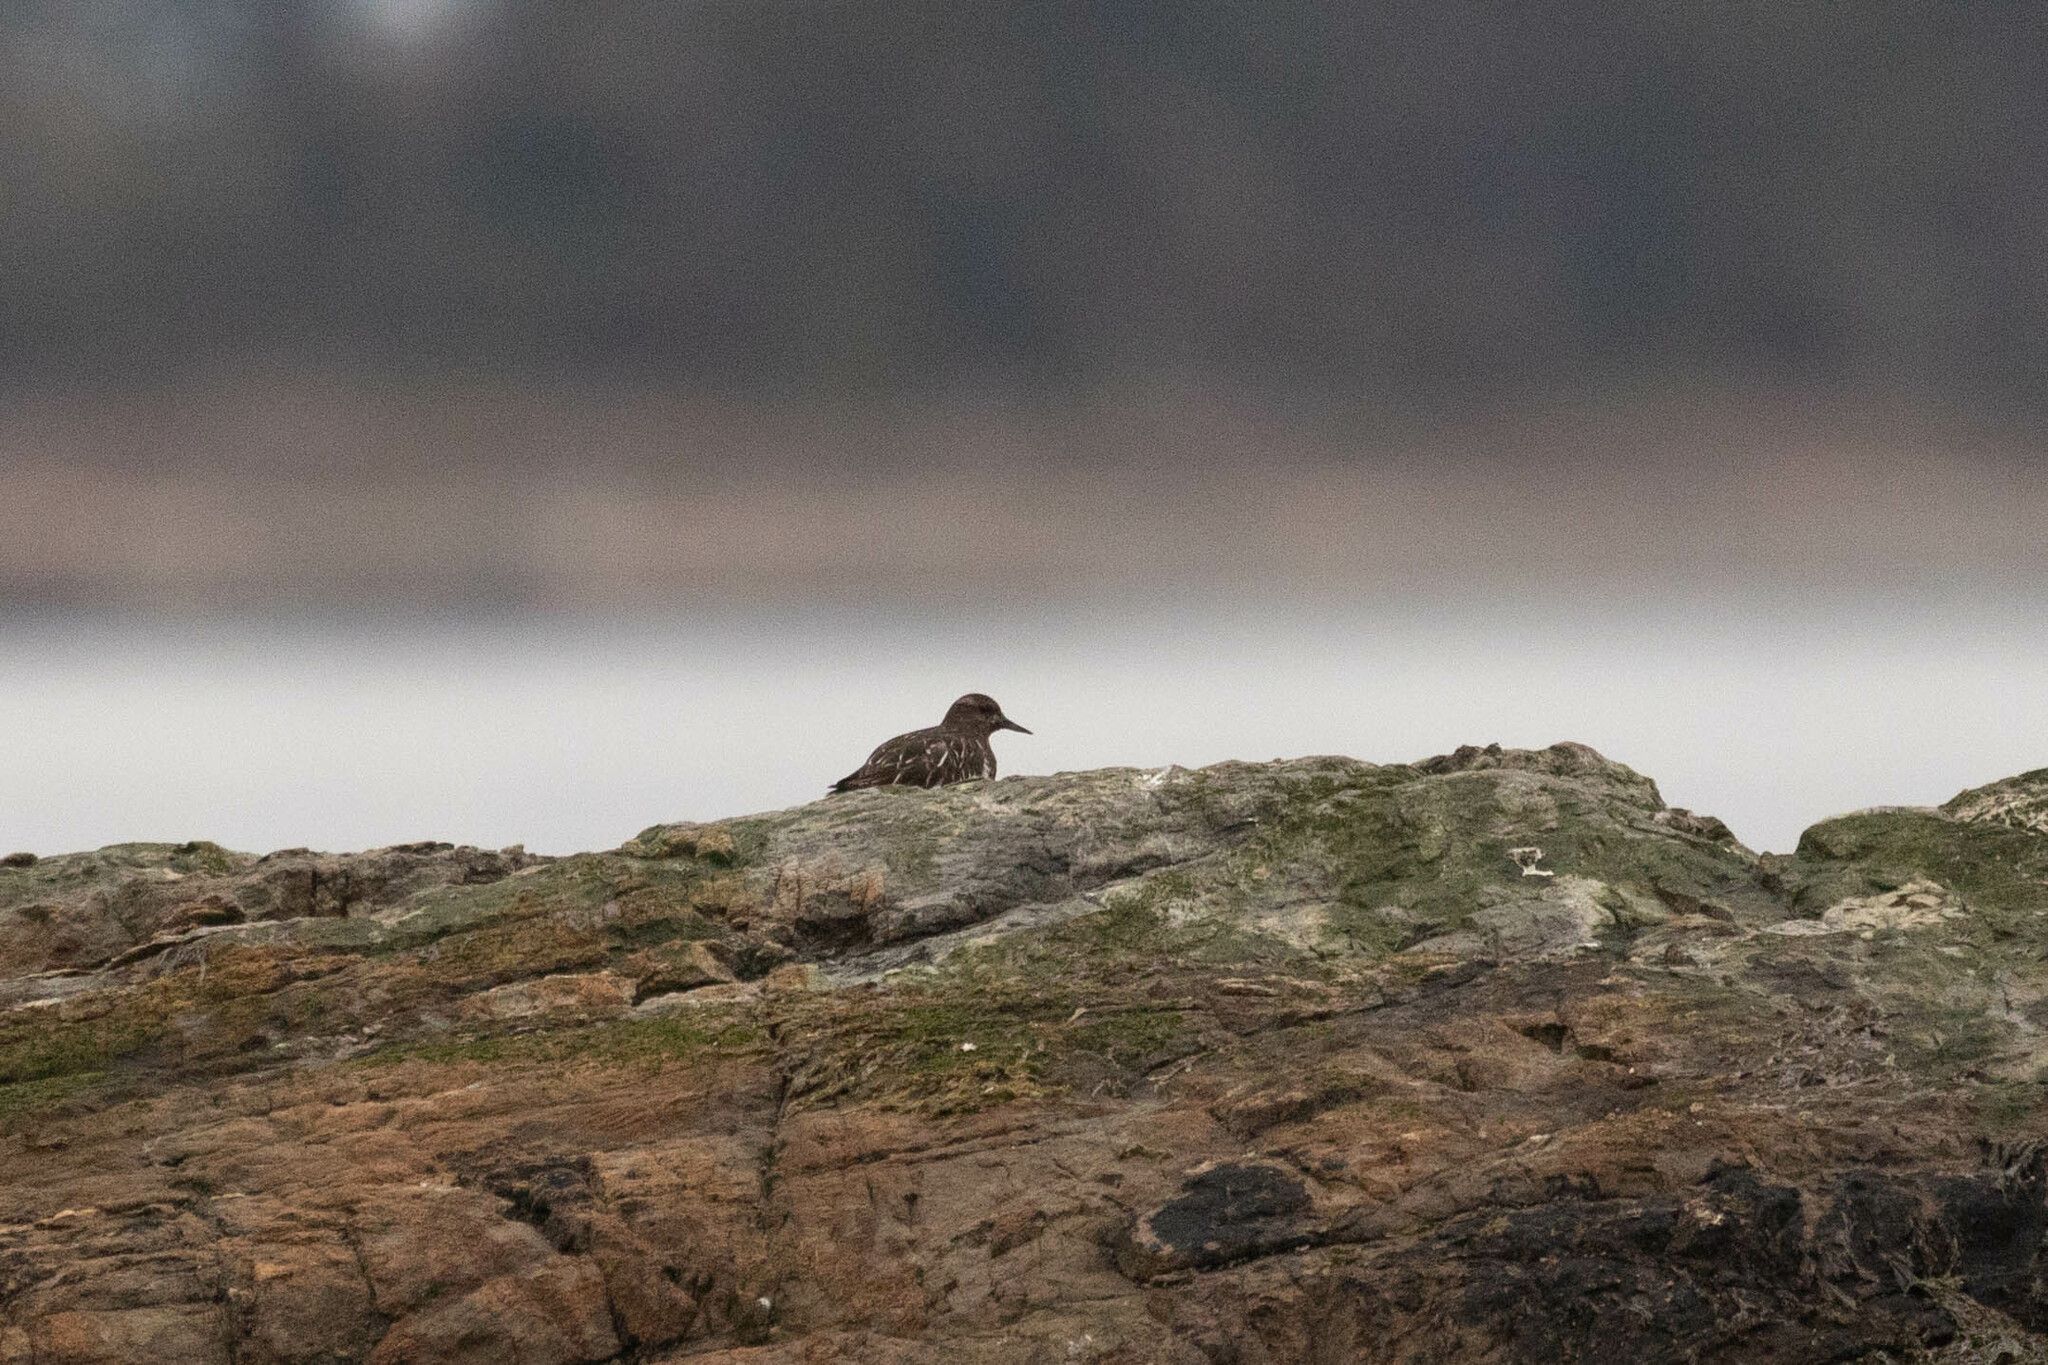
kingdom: Animalia
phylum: Chordata
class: Aves
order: Charadriiformes
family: Scolopacidae
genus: Arenaria
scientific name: Arenaria melanocephala
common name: Black turnstone
